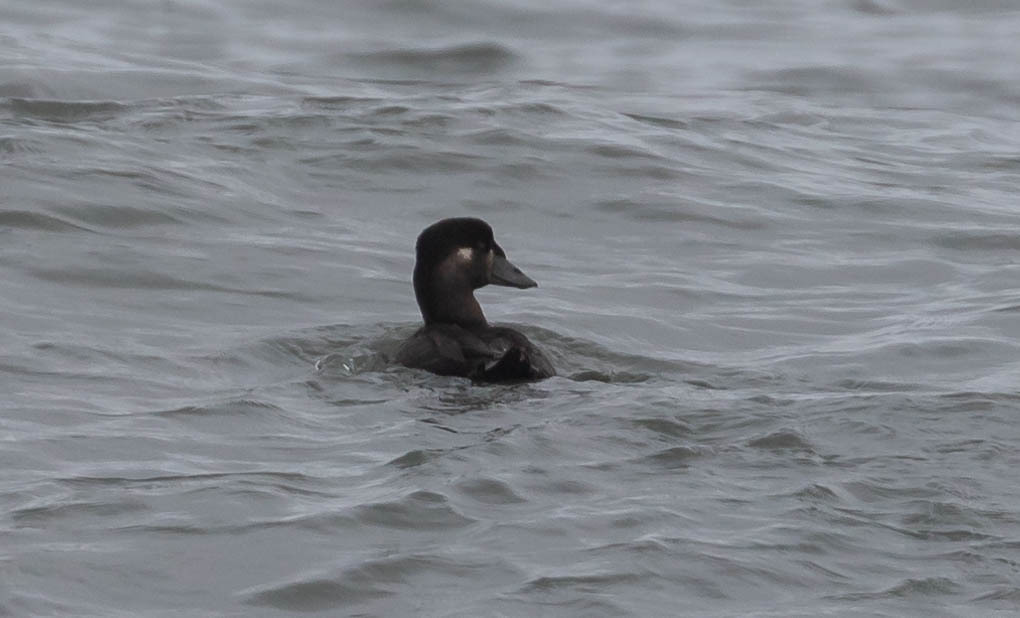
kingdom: Animalia
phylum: Chordata
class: Aves
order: Anseriformes
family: Anatidae
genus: Melanitta
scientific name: Melanitta perspicillata
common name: Surf scoter
